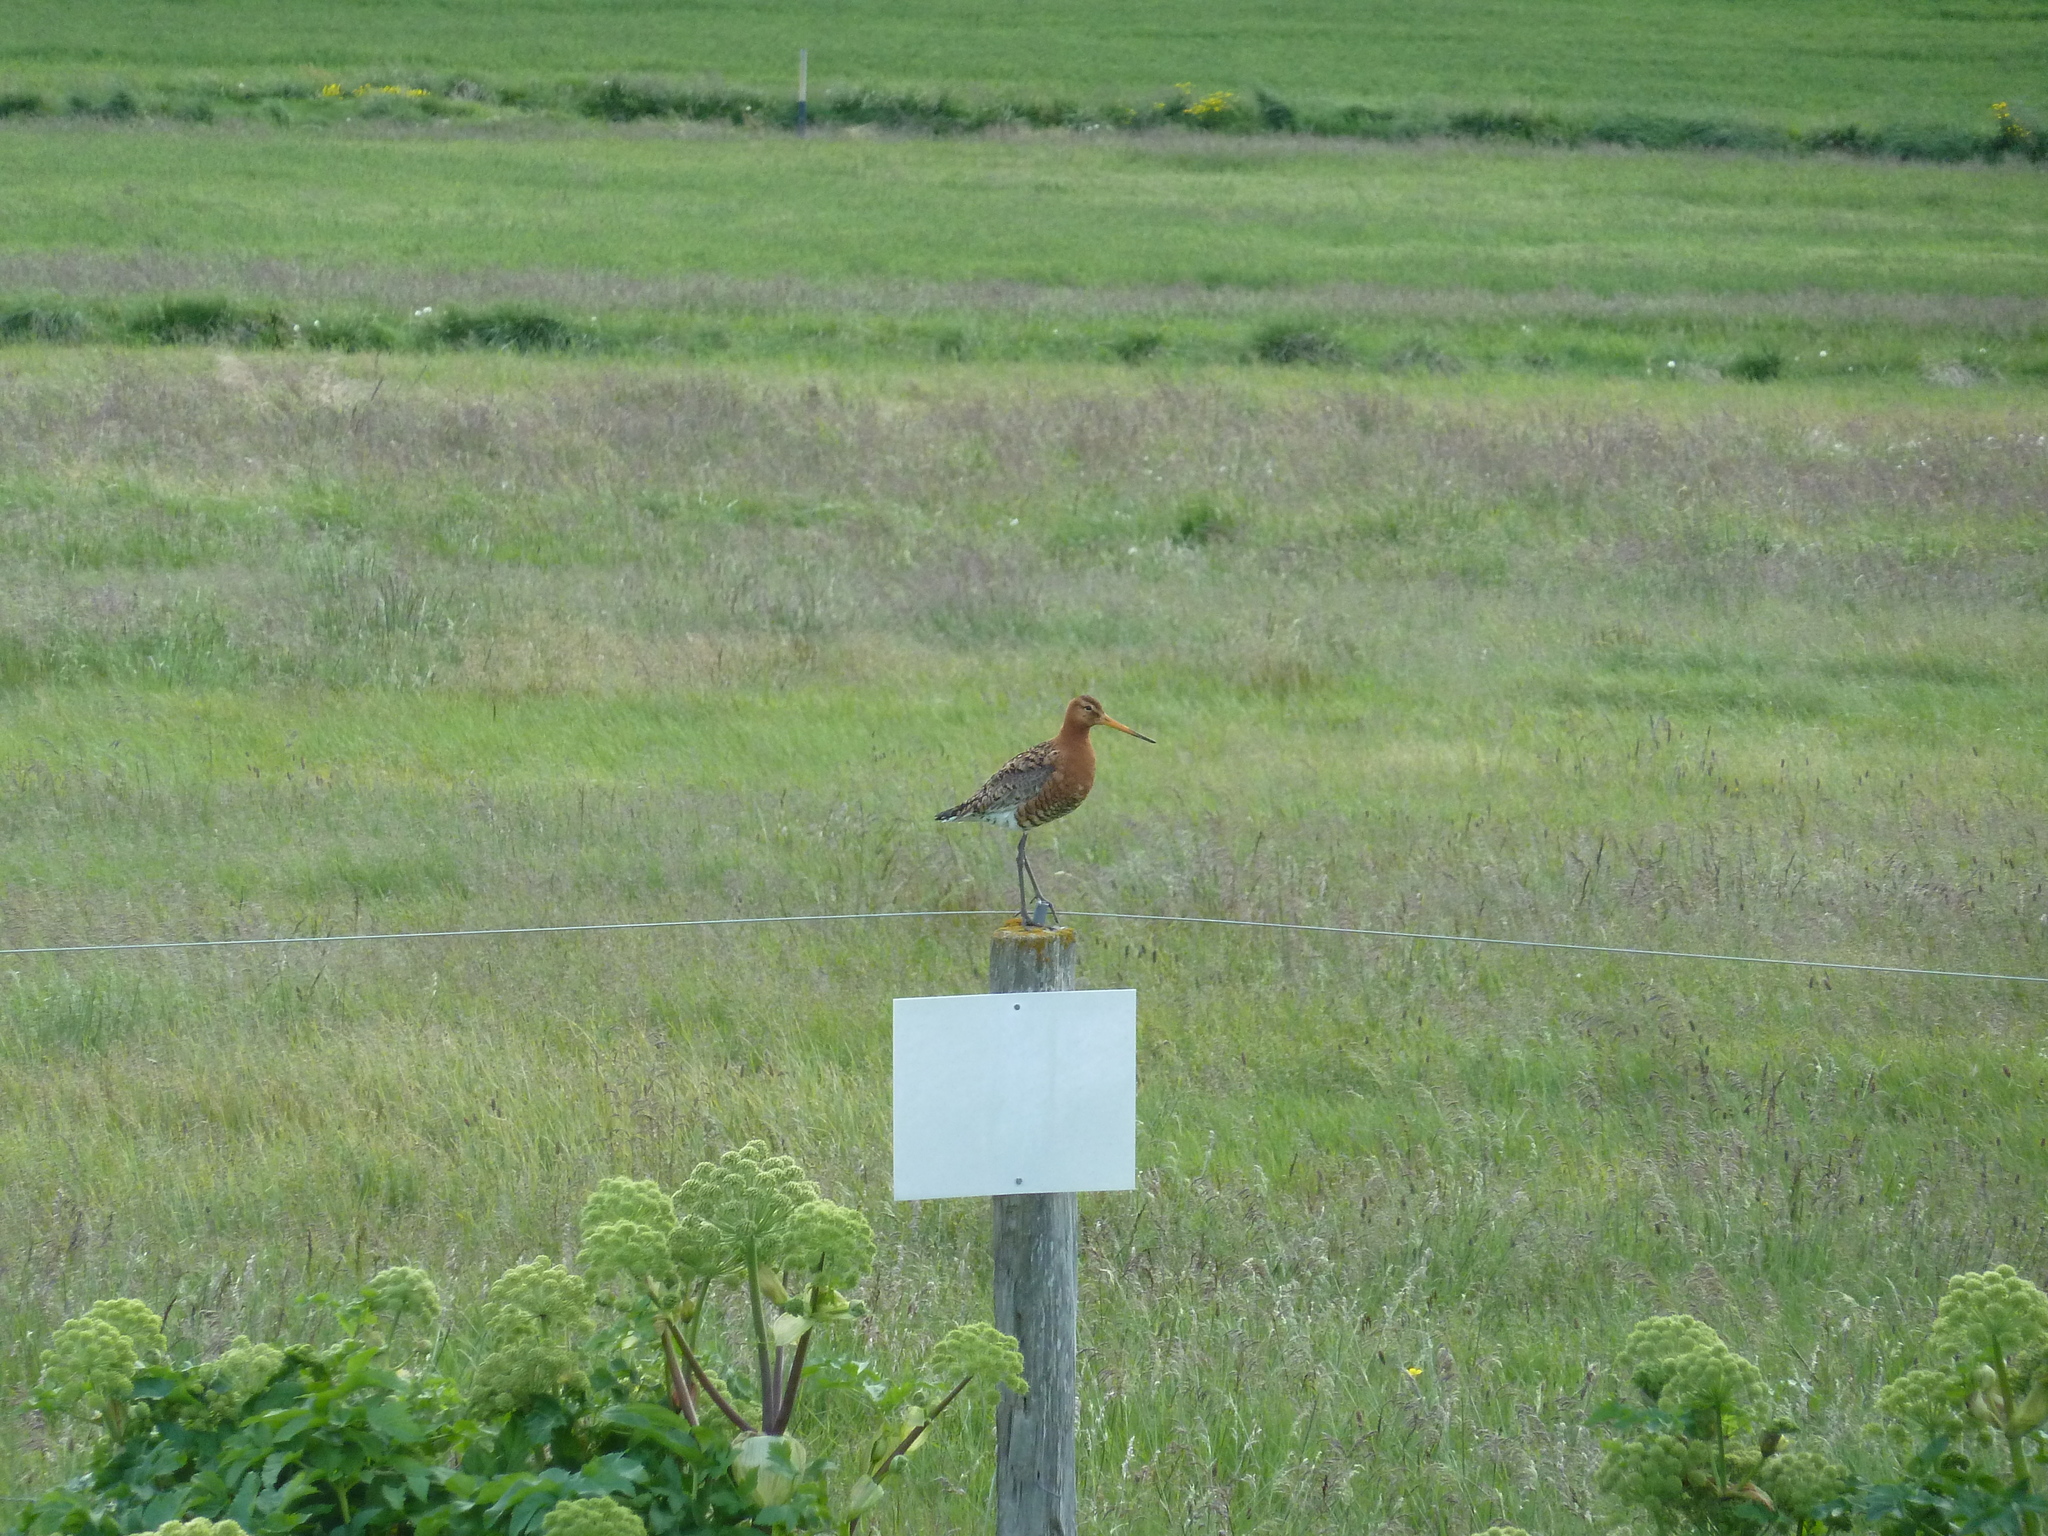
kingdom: Animalia
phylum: Chordata
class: Aves
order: Charadriiformes
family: Scolopacidae
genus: Limosa
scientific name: Limosa limosa
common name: Black-tailed godwit
